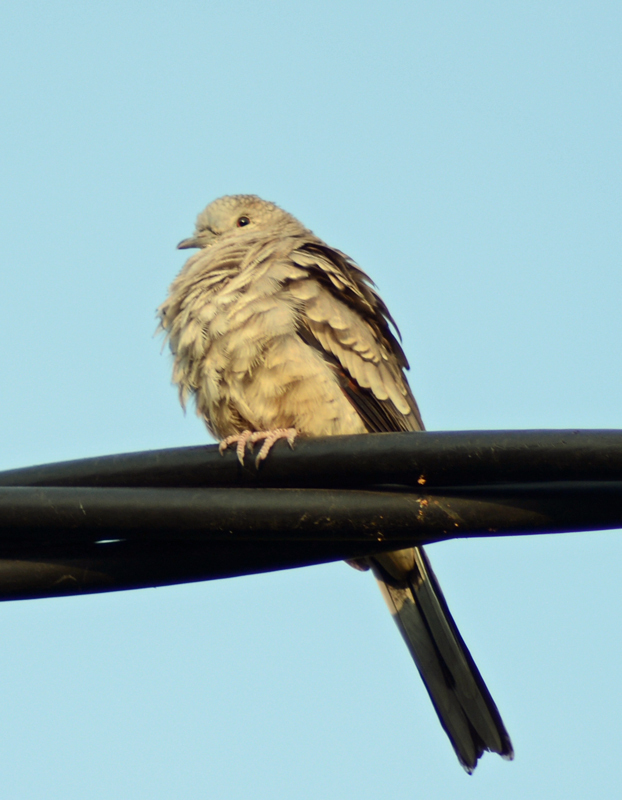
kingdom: Animalia
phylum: Chordata
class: Aves
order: Columbiformes
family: Columbidae
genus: Columbina
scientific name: Columbina inca
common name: Inca dove
